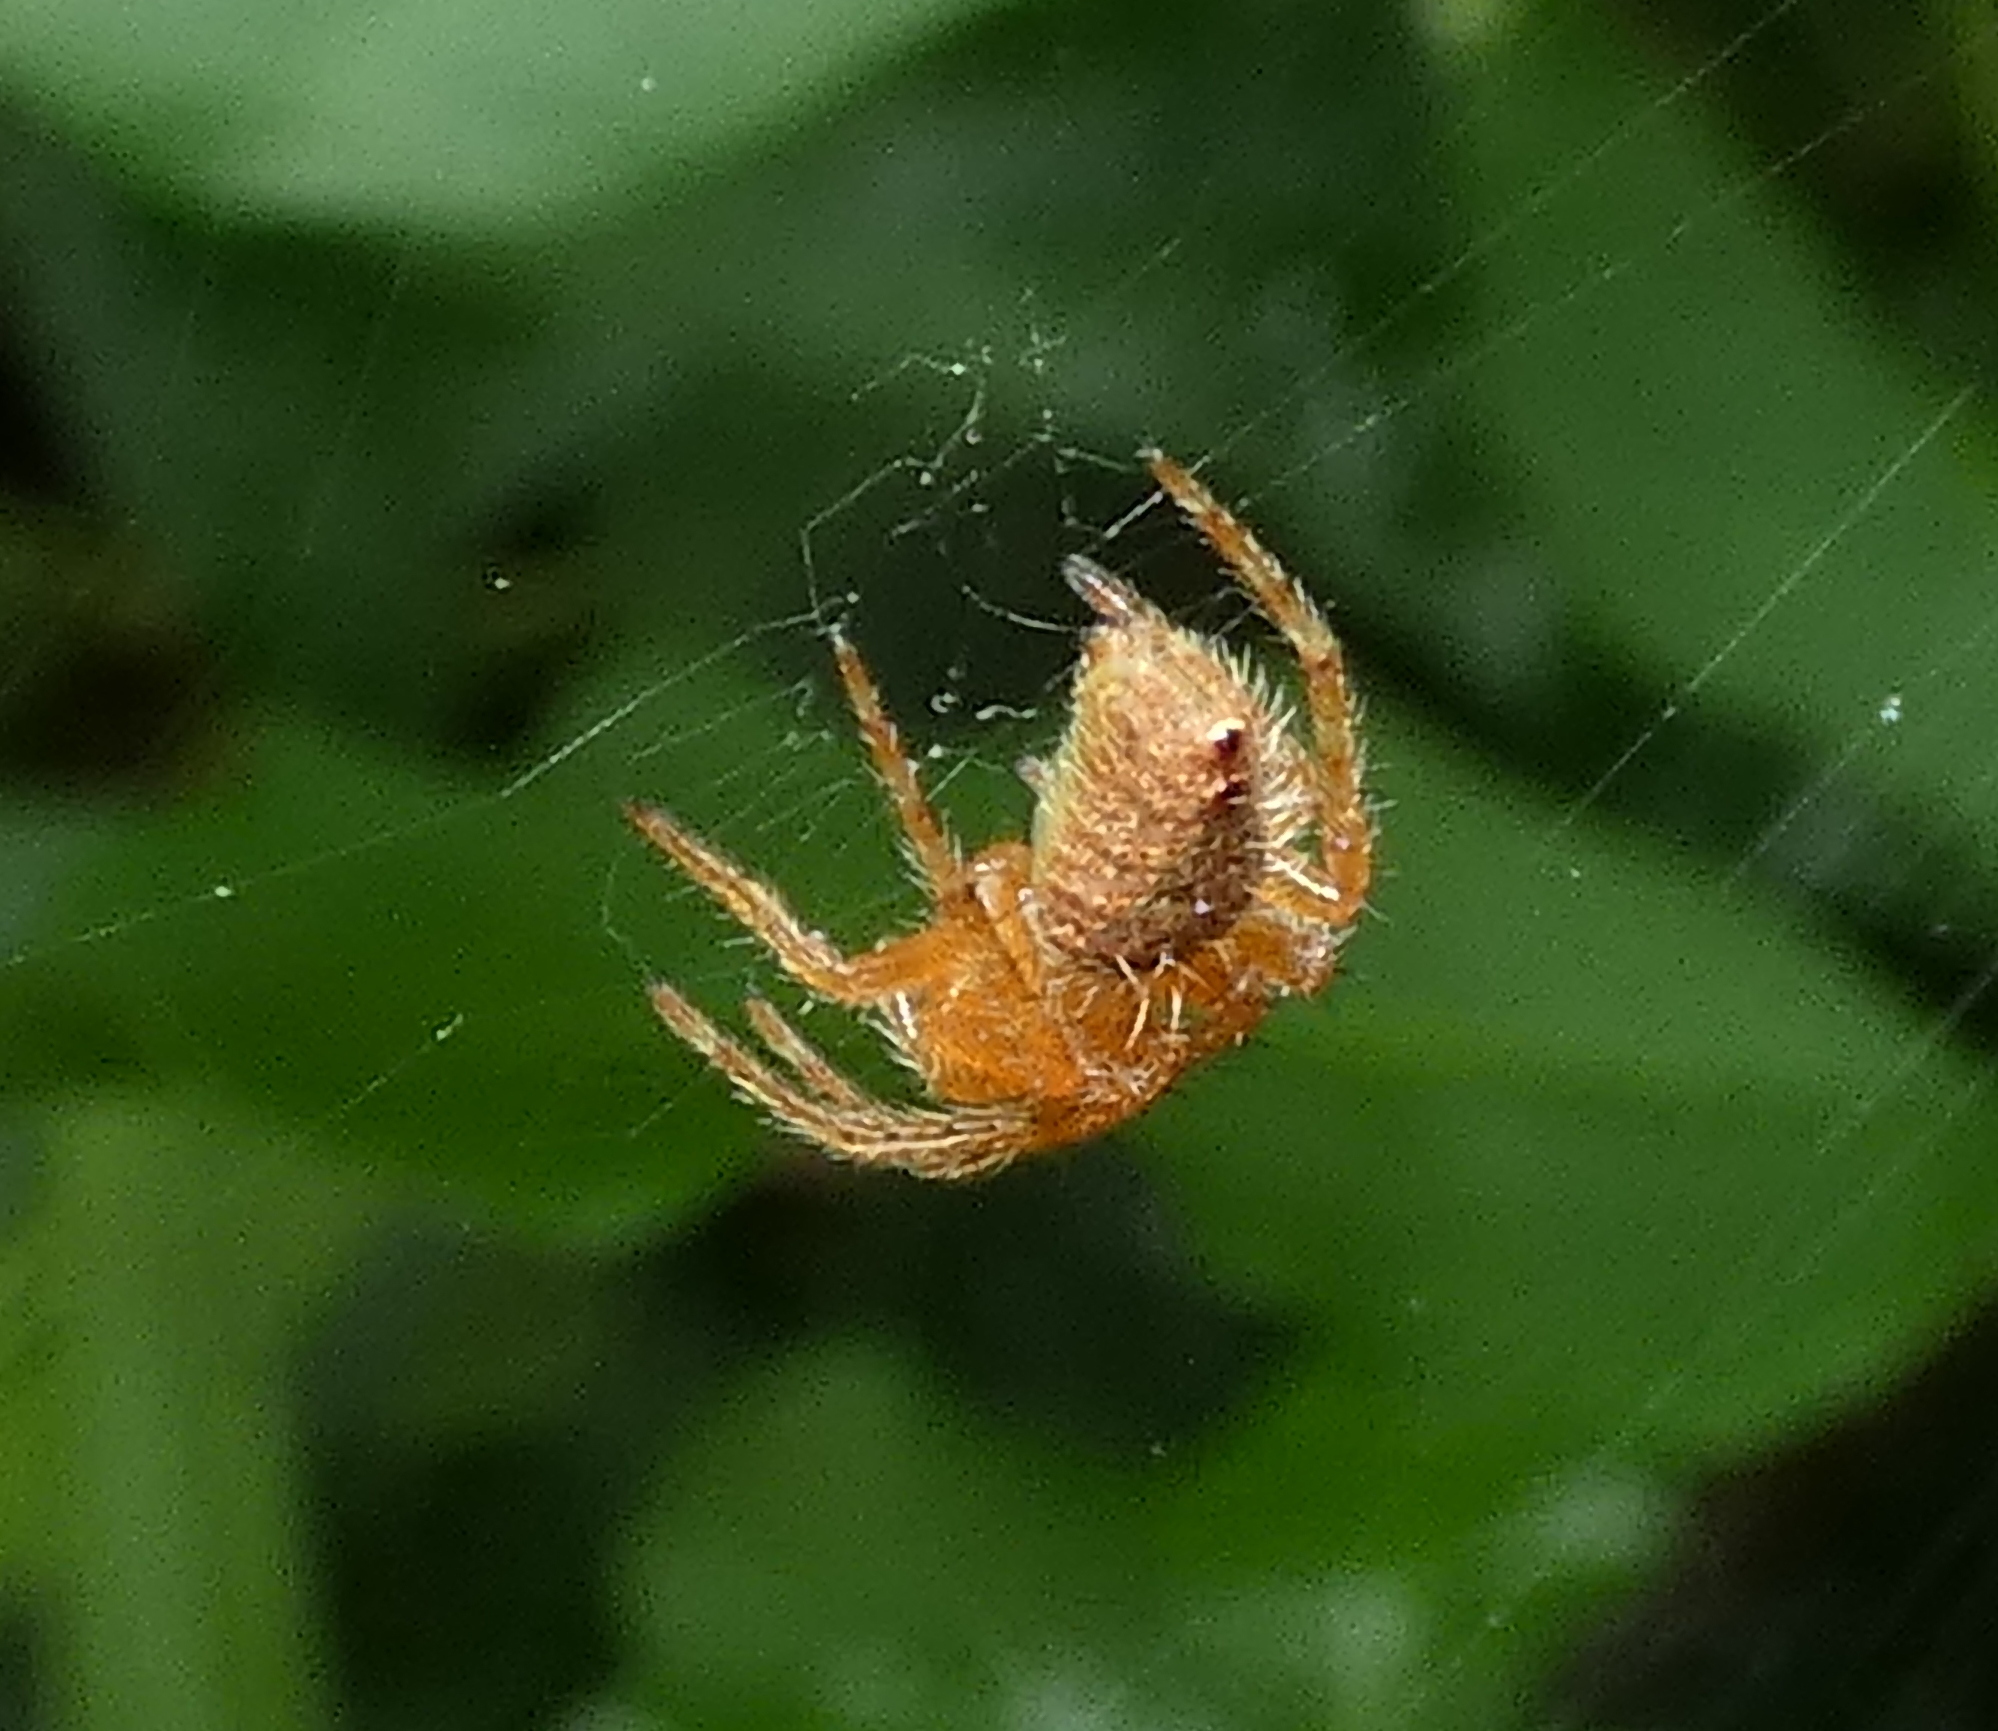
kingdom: Animalia
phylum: Arthropoda
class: Arachnida
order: Araneae
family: Araneidae
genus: Eriophora
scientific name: Eriophora edax
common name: Orb weavers
